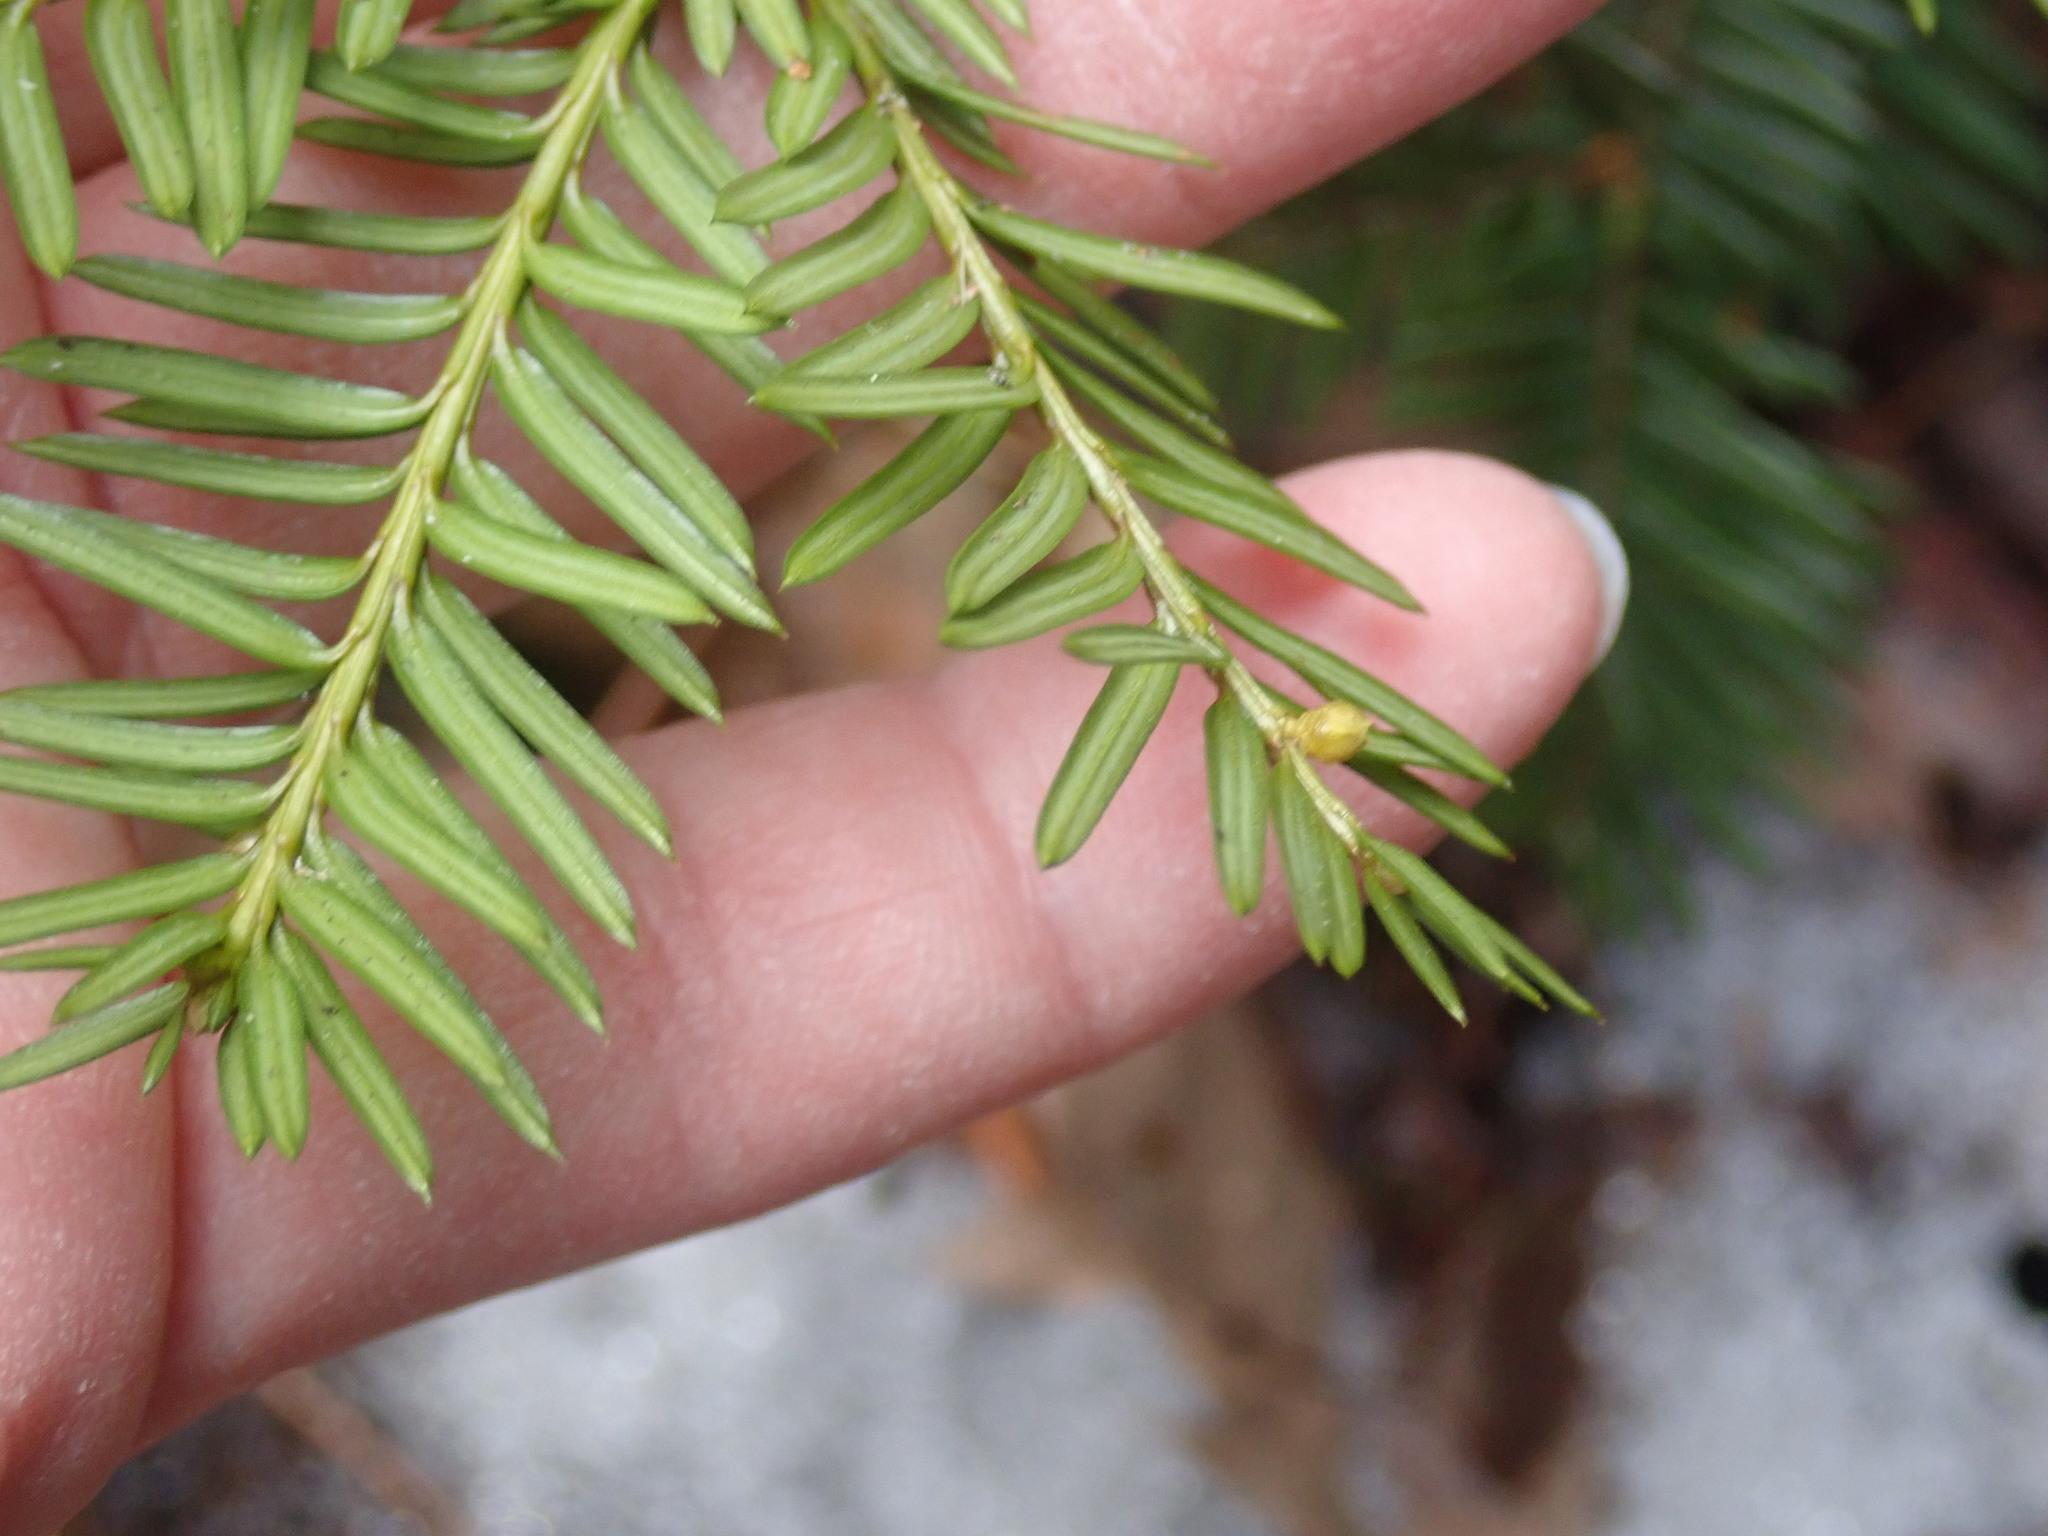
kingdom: Plantae
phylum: Tracheophyta
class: Pinopsida
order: Pinales
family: Taxaceae
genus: Taxus
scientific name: Taxus canadensis
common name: American yew
